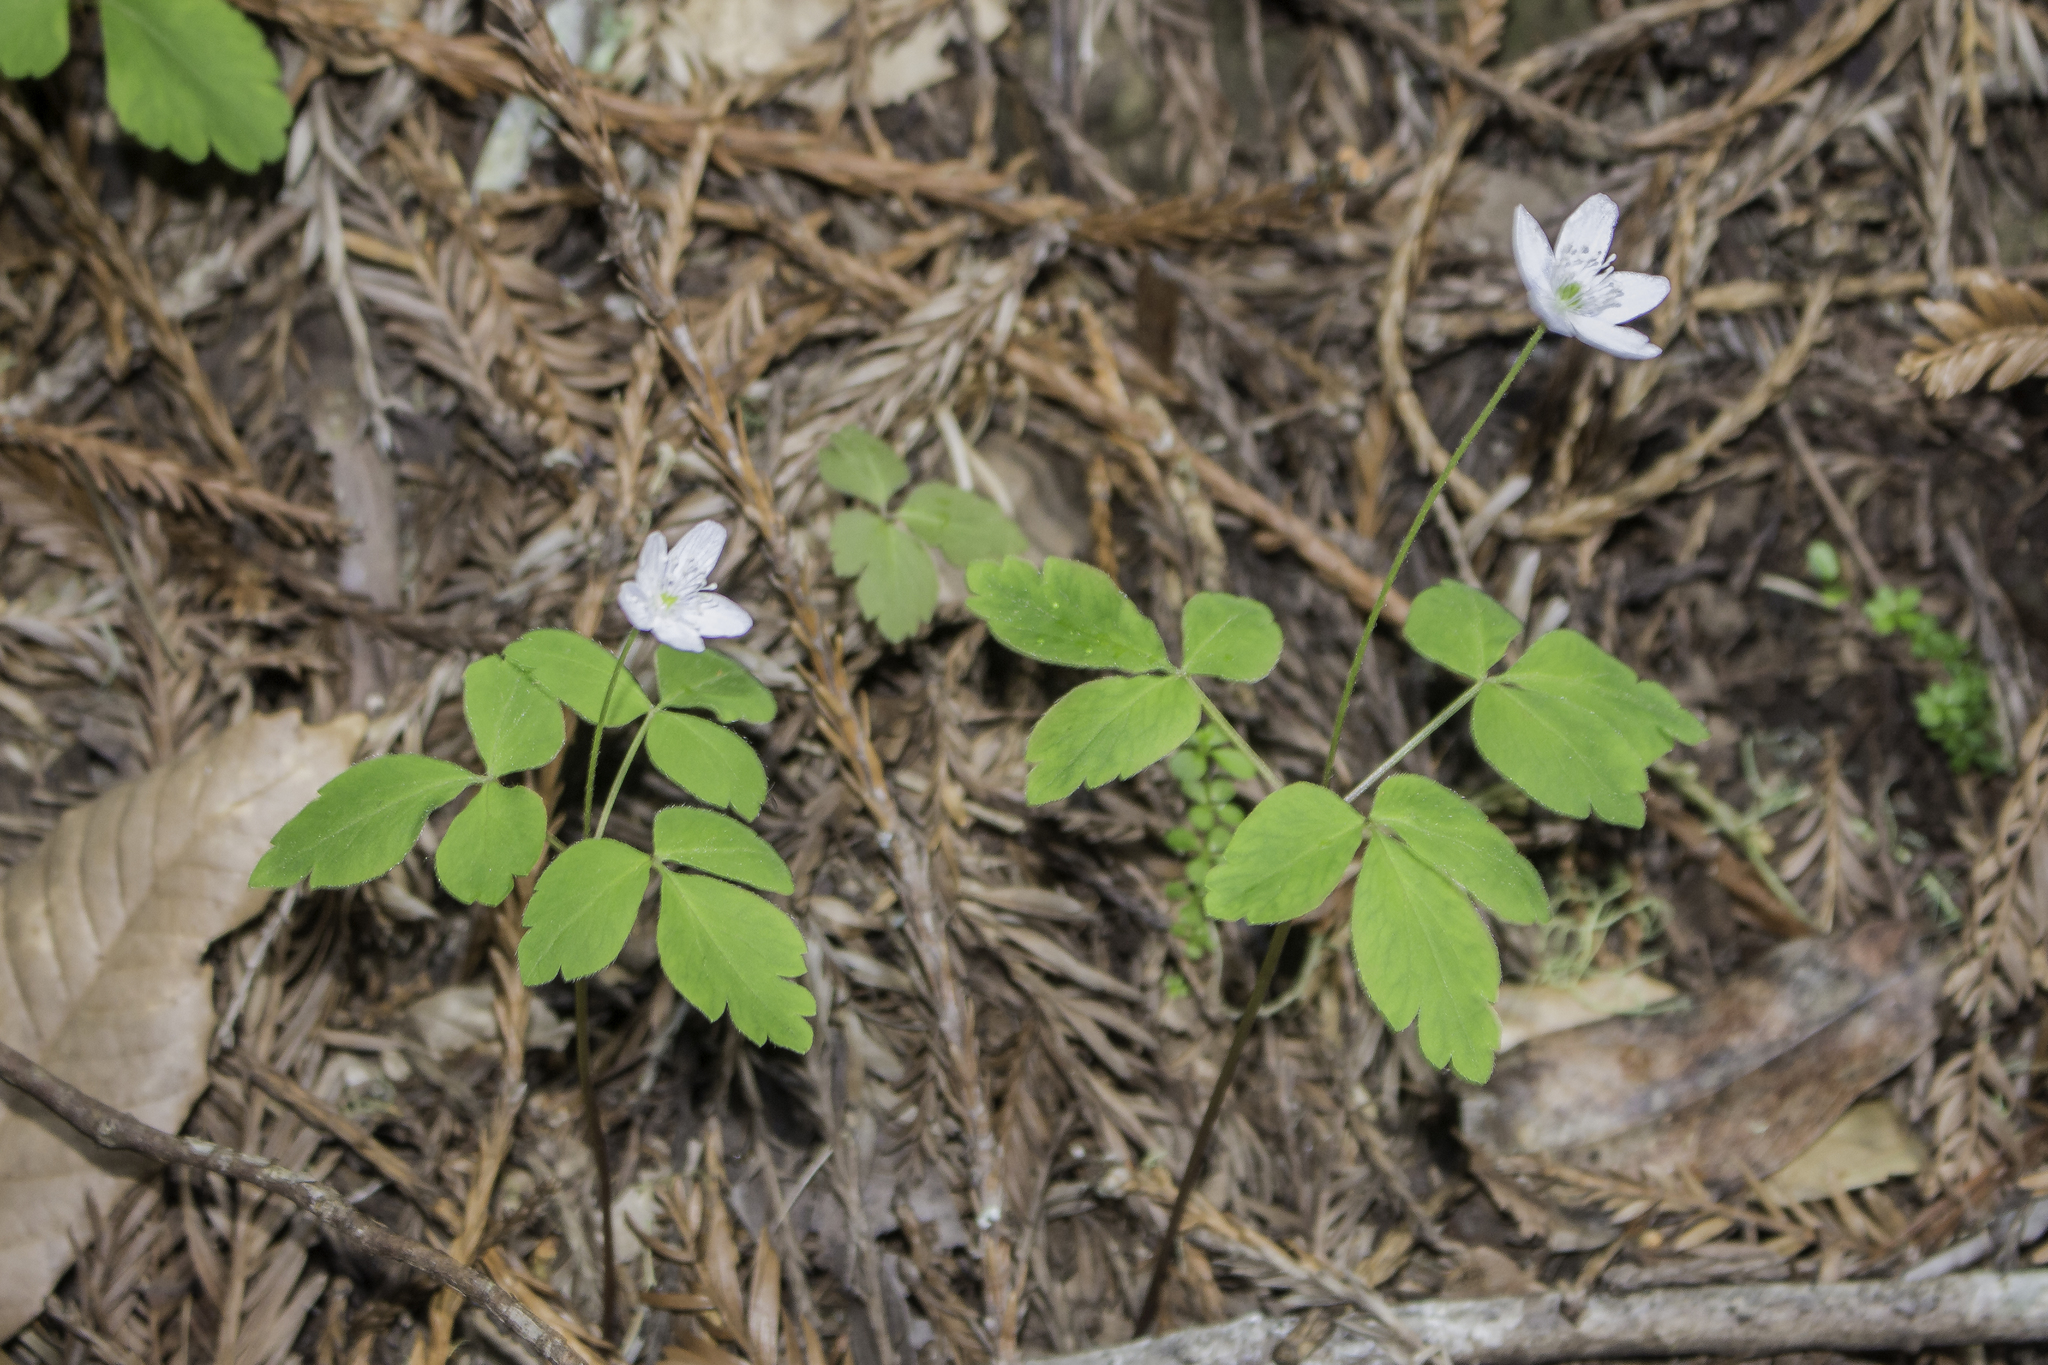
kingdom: Plantae
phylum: Tracheophyta
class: Magnoliopsida
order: Ranunculales
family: Ranunculaceae
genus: Anemone
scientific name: Anemone
